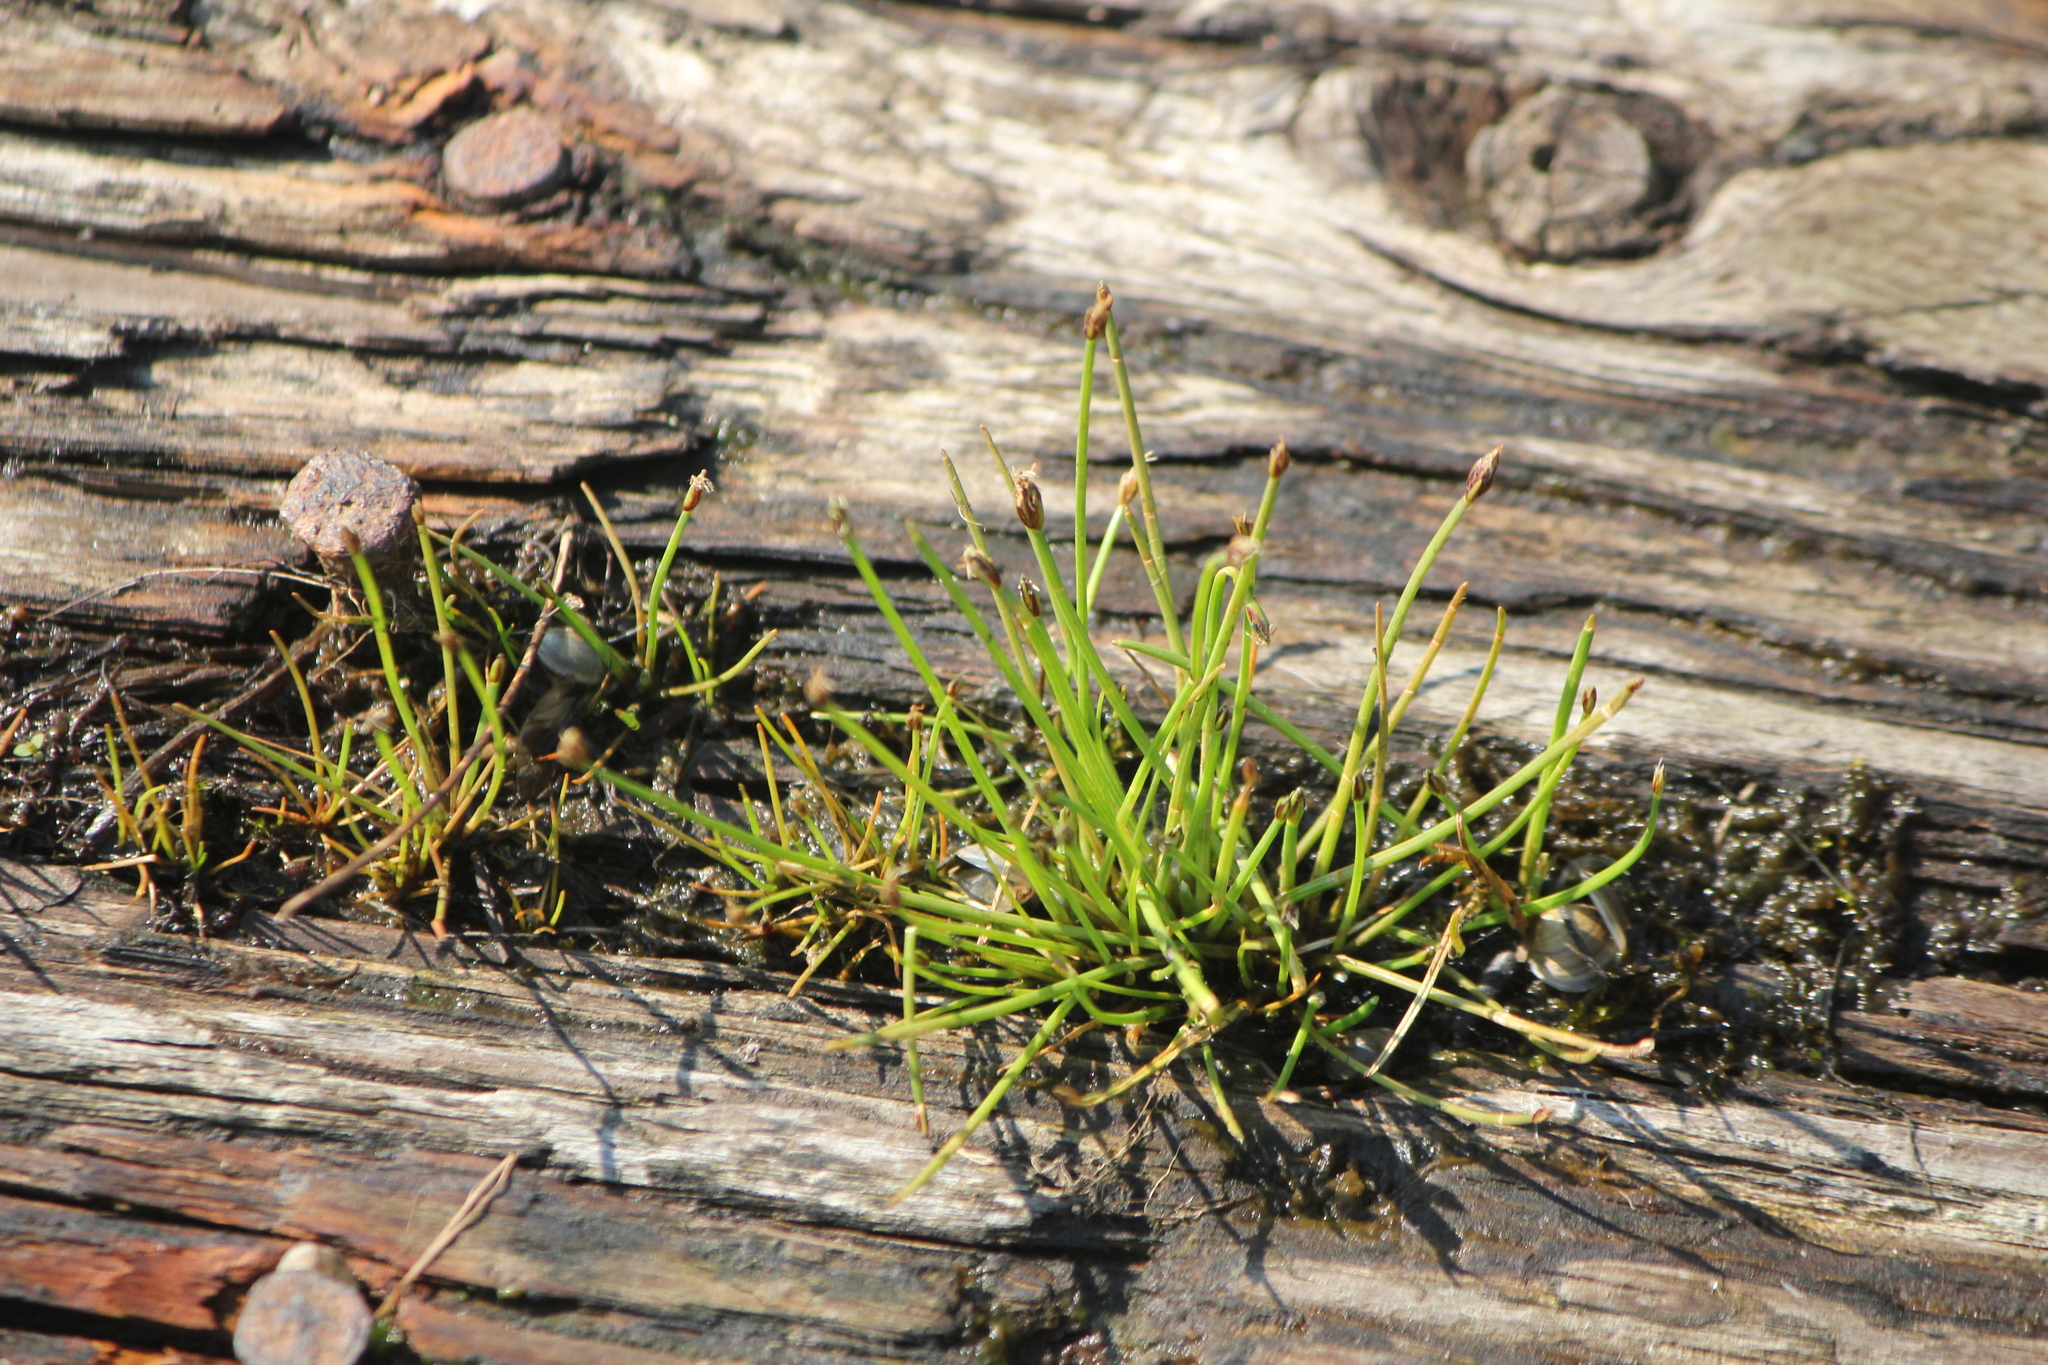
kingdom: Plantae
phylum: Tracheophyta
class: Liliopsida
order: Poales
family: Cyperaceae
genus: Eleocharis
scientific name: Eleocharis flavescens
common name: Yellow spikerush
